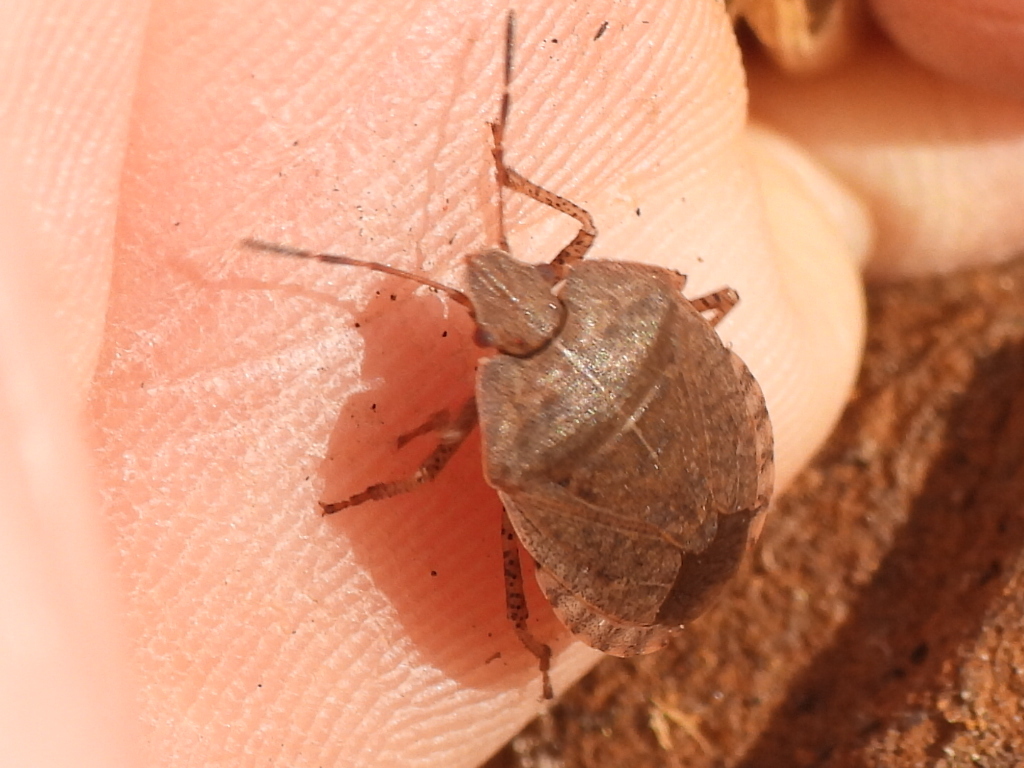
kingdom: Animalia
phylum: Arthropoda
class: Insecta
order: Hemiptera
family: Pentatomidae
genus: Menecles
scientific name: Menecles insertus
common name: Elf shoe stink bug
